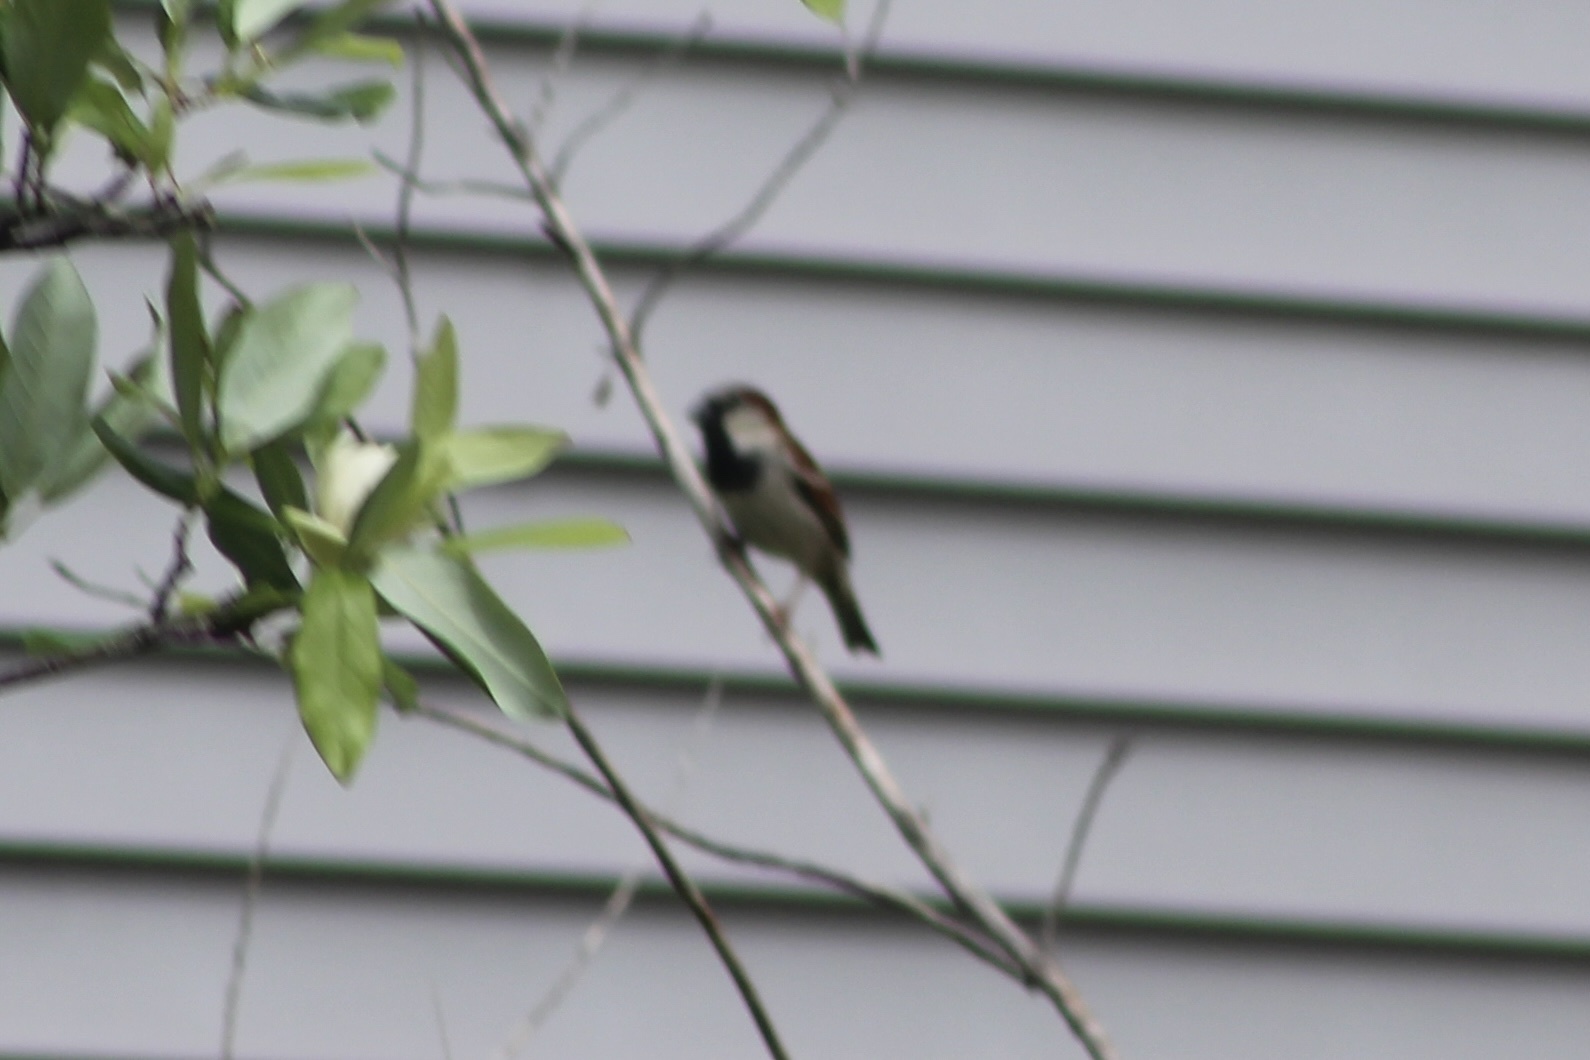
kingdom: Animalia
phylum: Chordata
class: Aves
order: Passeriformes
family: Passeridae
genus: Passer
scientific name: Passer domesticus
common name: House sparrow
